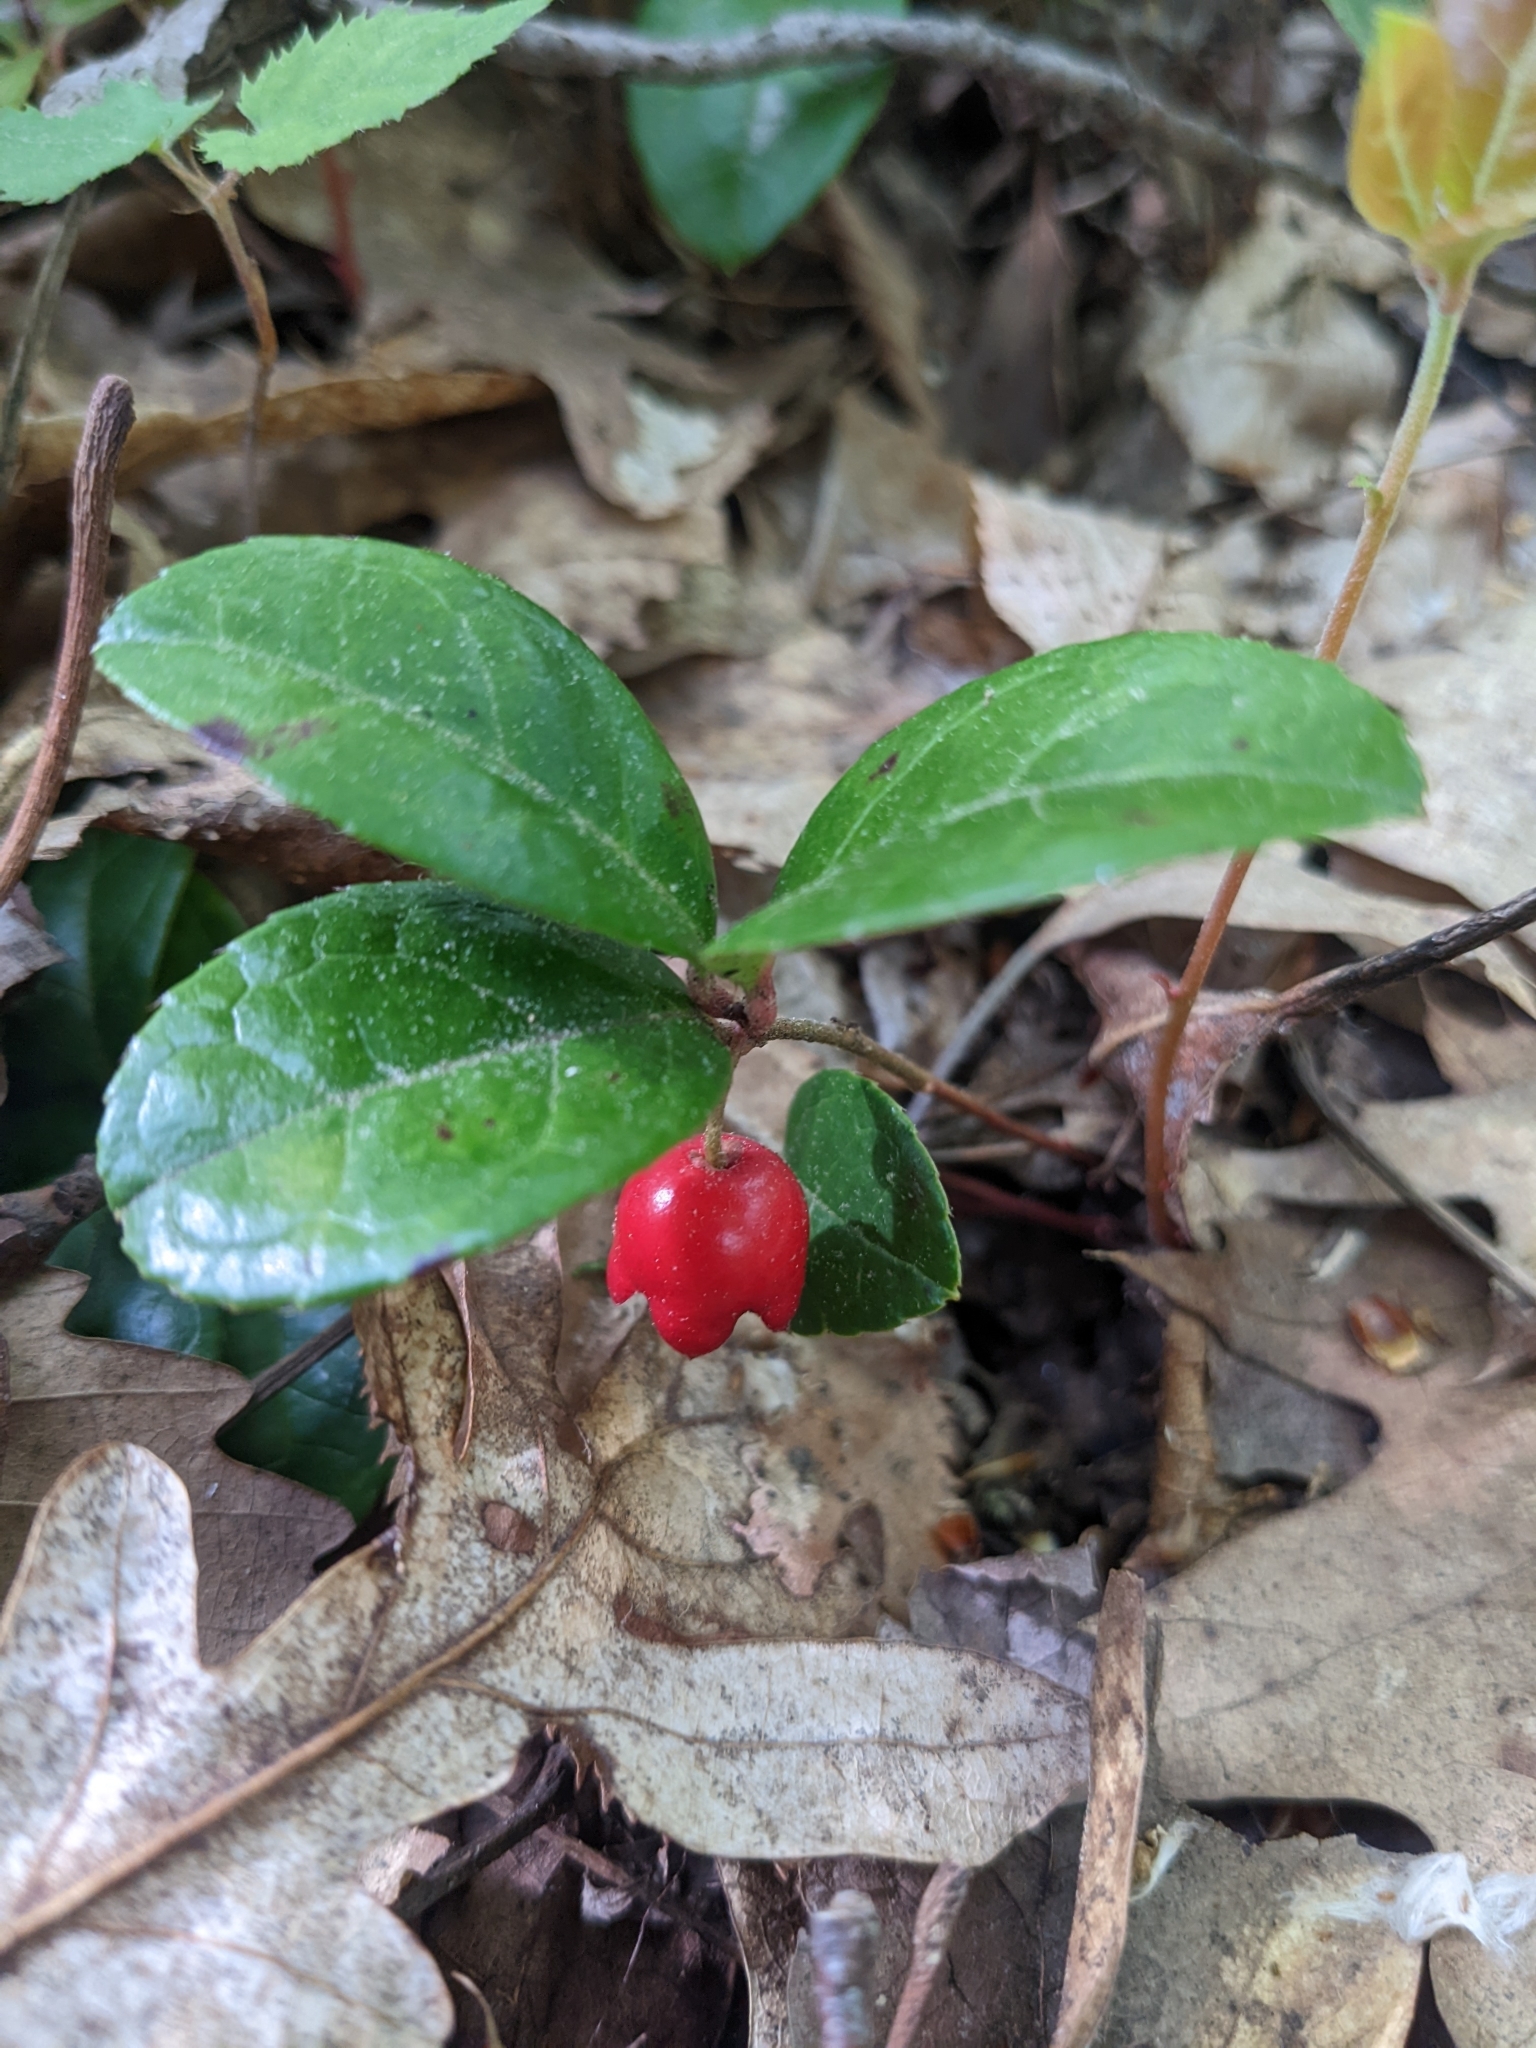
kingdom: Plantae
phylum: Tracheophyta
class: Magnoliopsida
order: Ericales
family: Ericaceae
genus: Gaultheria
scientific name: Gaultheria procumbens
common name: Checkerberry
